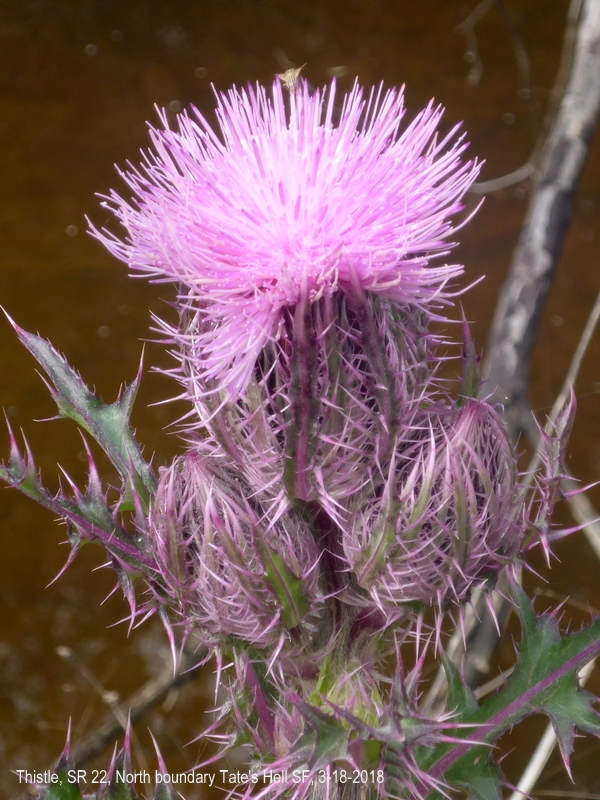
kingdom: Plantae
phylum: Tracheophyta
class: Magnoliopsida
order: Asterales
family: Asteraceae
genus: Cirsium
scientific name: Cirsium horridulum
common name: Bristly thistle
